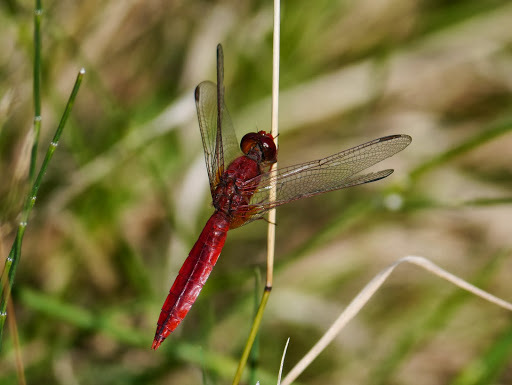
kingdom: Animalia
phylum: Arthropoda
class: Insecta
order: Odonata
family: Libellulidae
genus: Crocothemis
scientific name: Crocothemis erythraea
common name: Scarlet dragonfly
